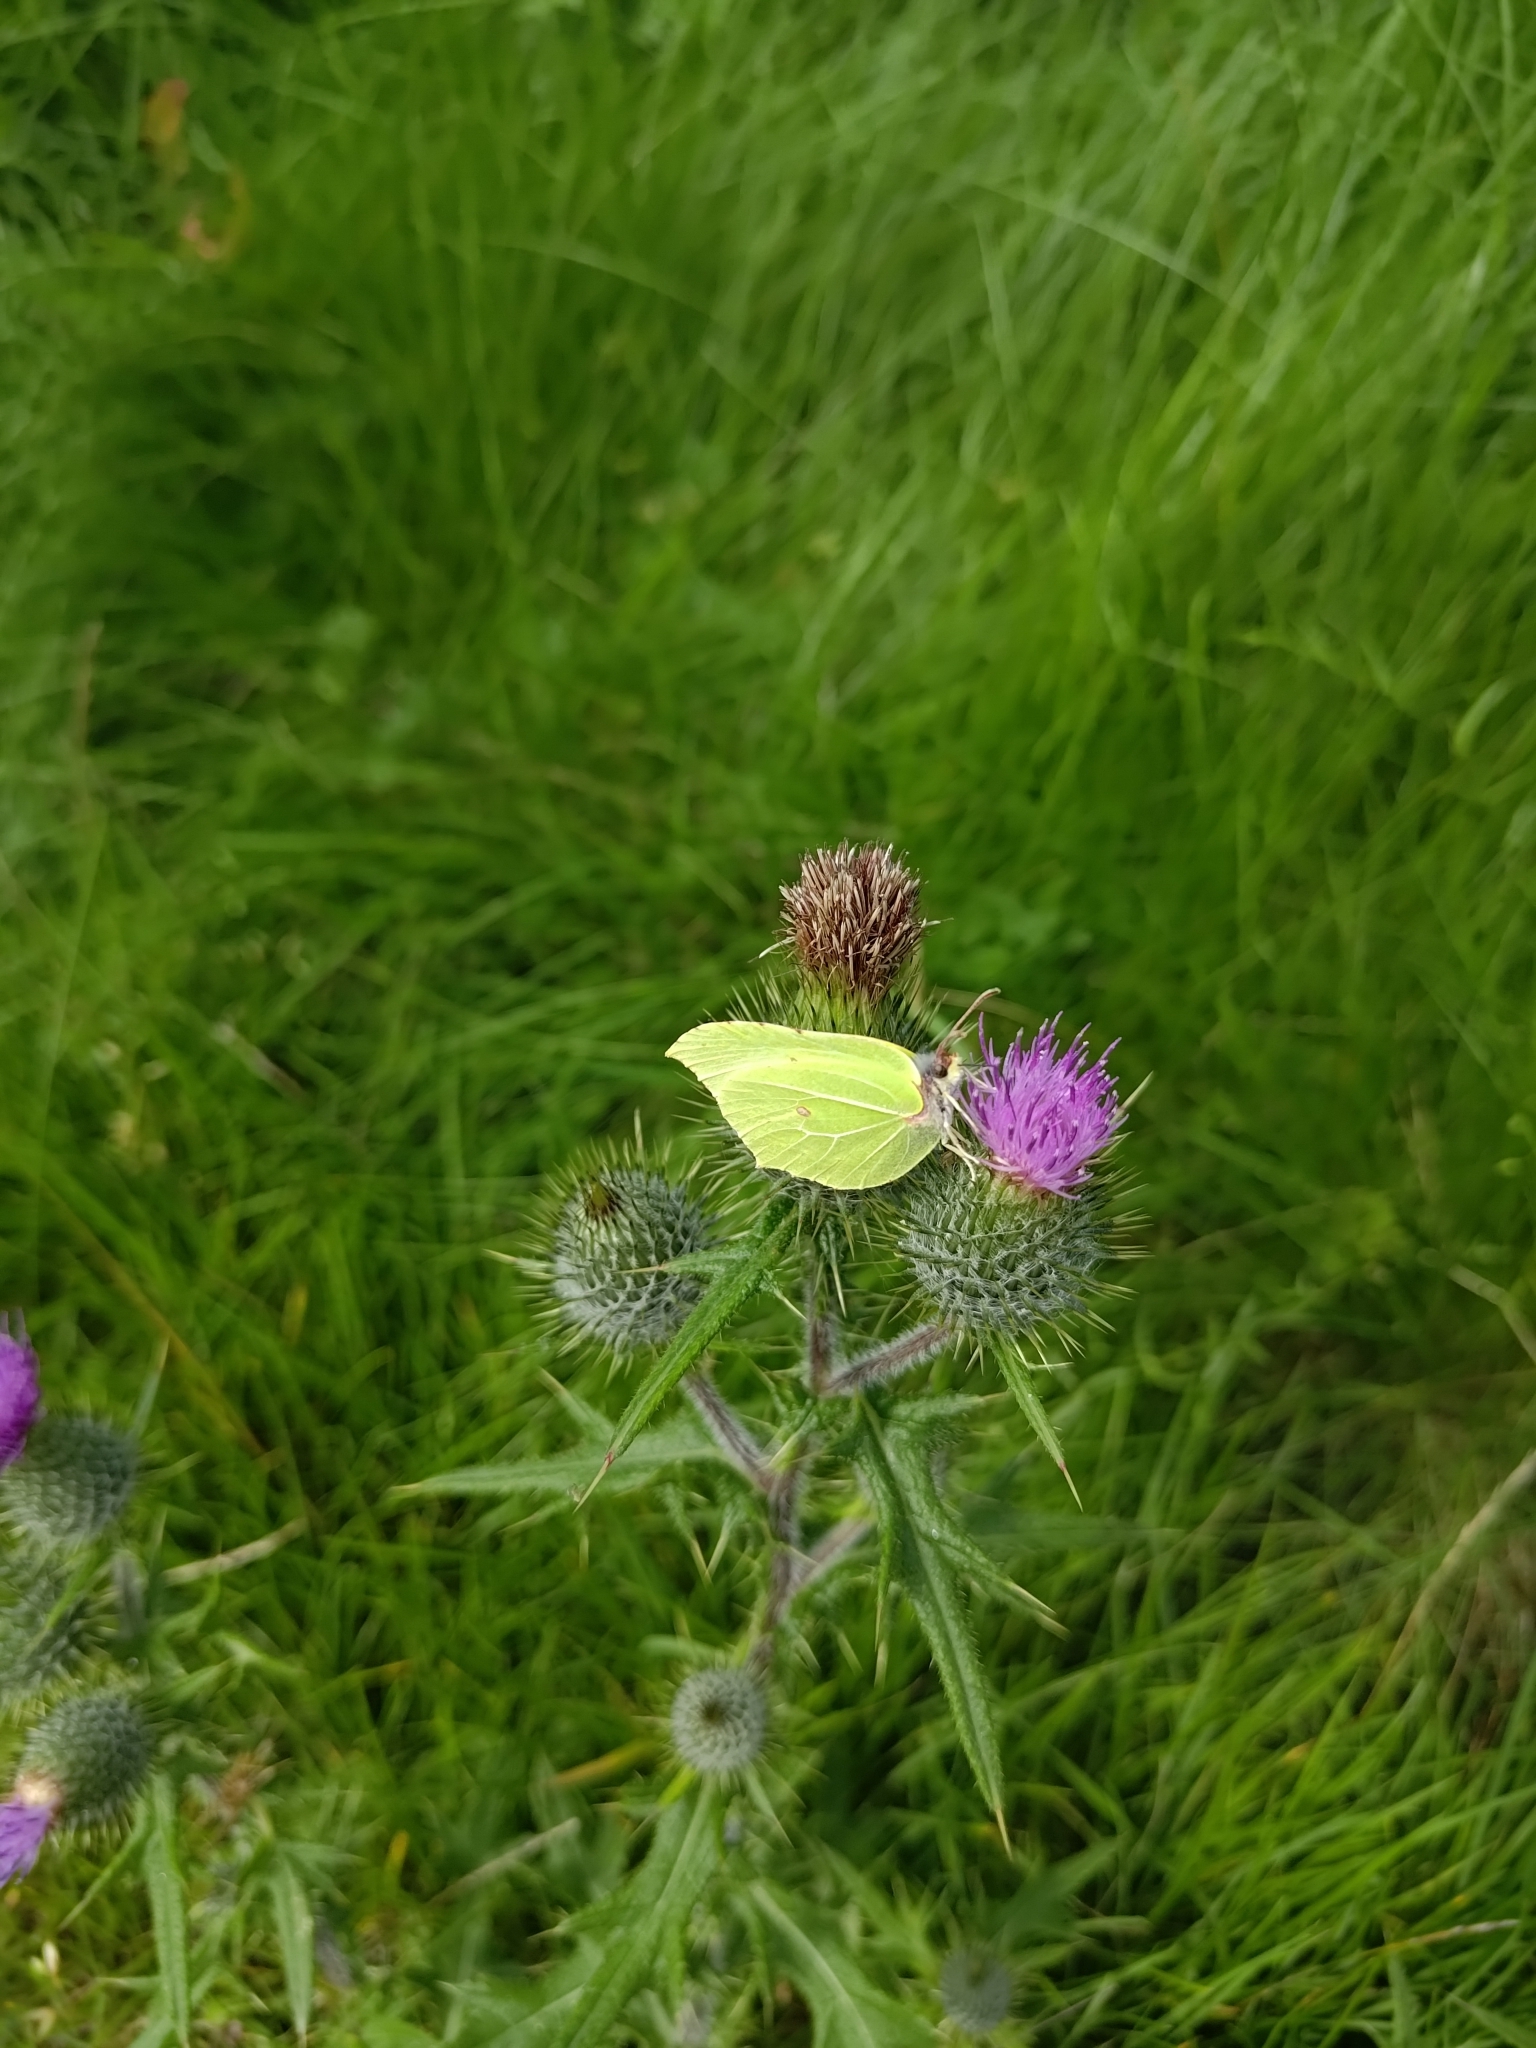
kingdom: Animalia
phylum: Arthropoda
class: Insecta
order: Lepidoptera
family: Pieridae
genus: Gonepteryx
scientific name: Gonepteryx rhamni
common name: Brimstone
